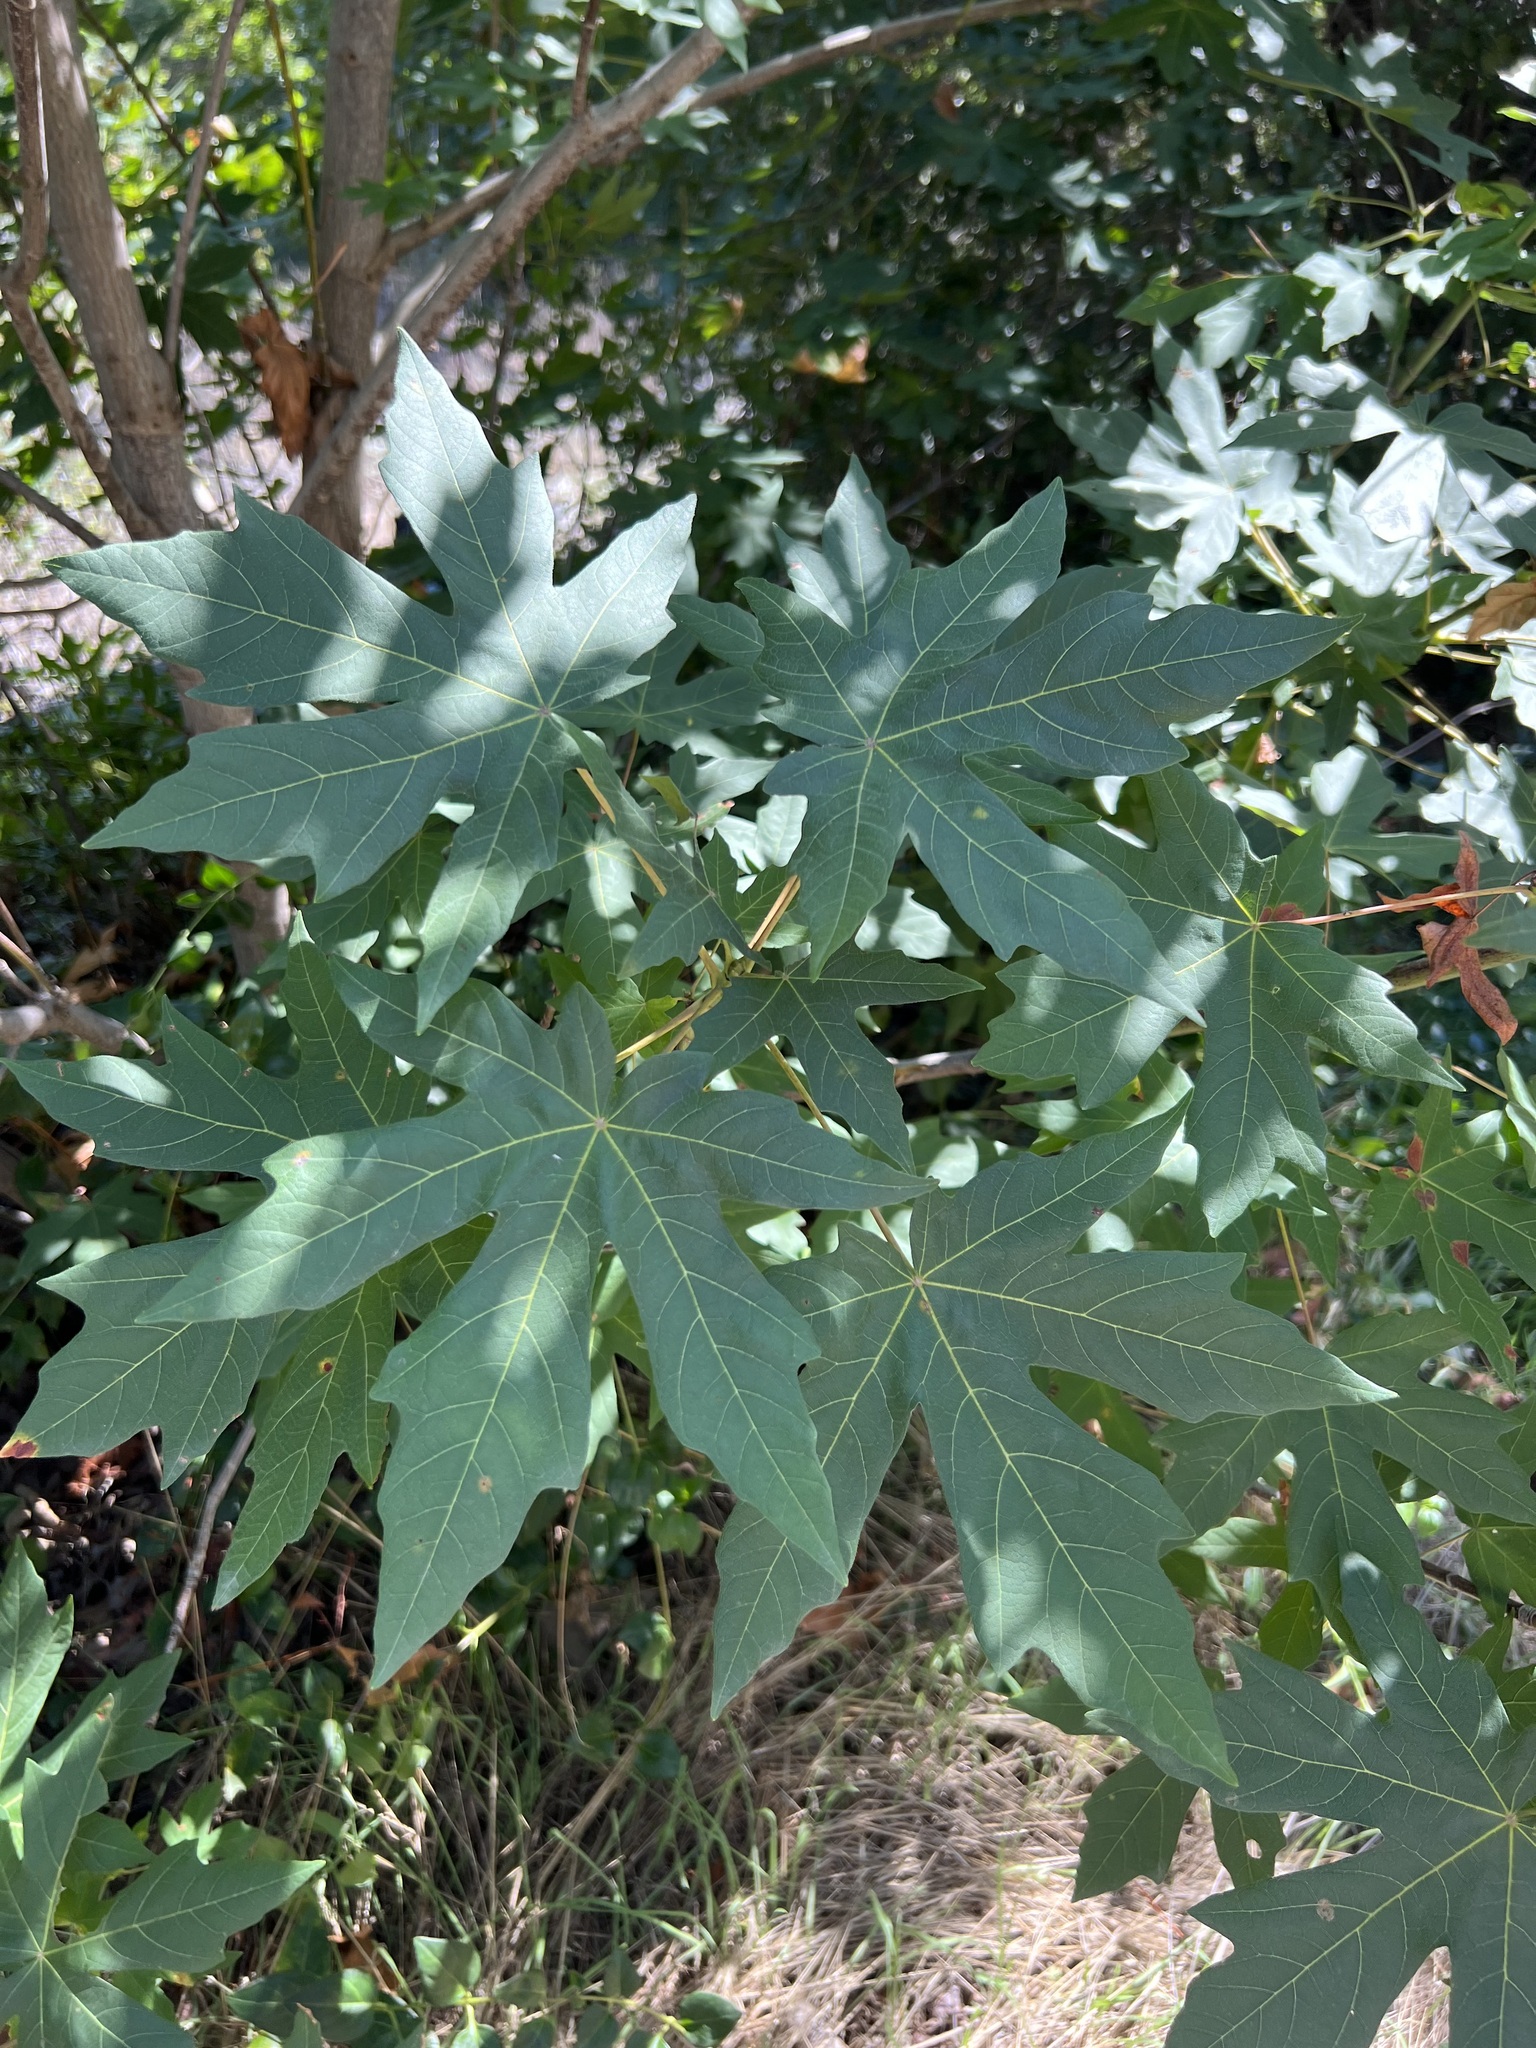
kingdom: Plantae
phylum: Tracheophyta
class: Magnoliopsida
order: Sapindales
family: Sapindaceae
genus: Acer
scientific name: Acer macrophyllum
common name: Oregon maple
